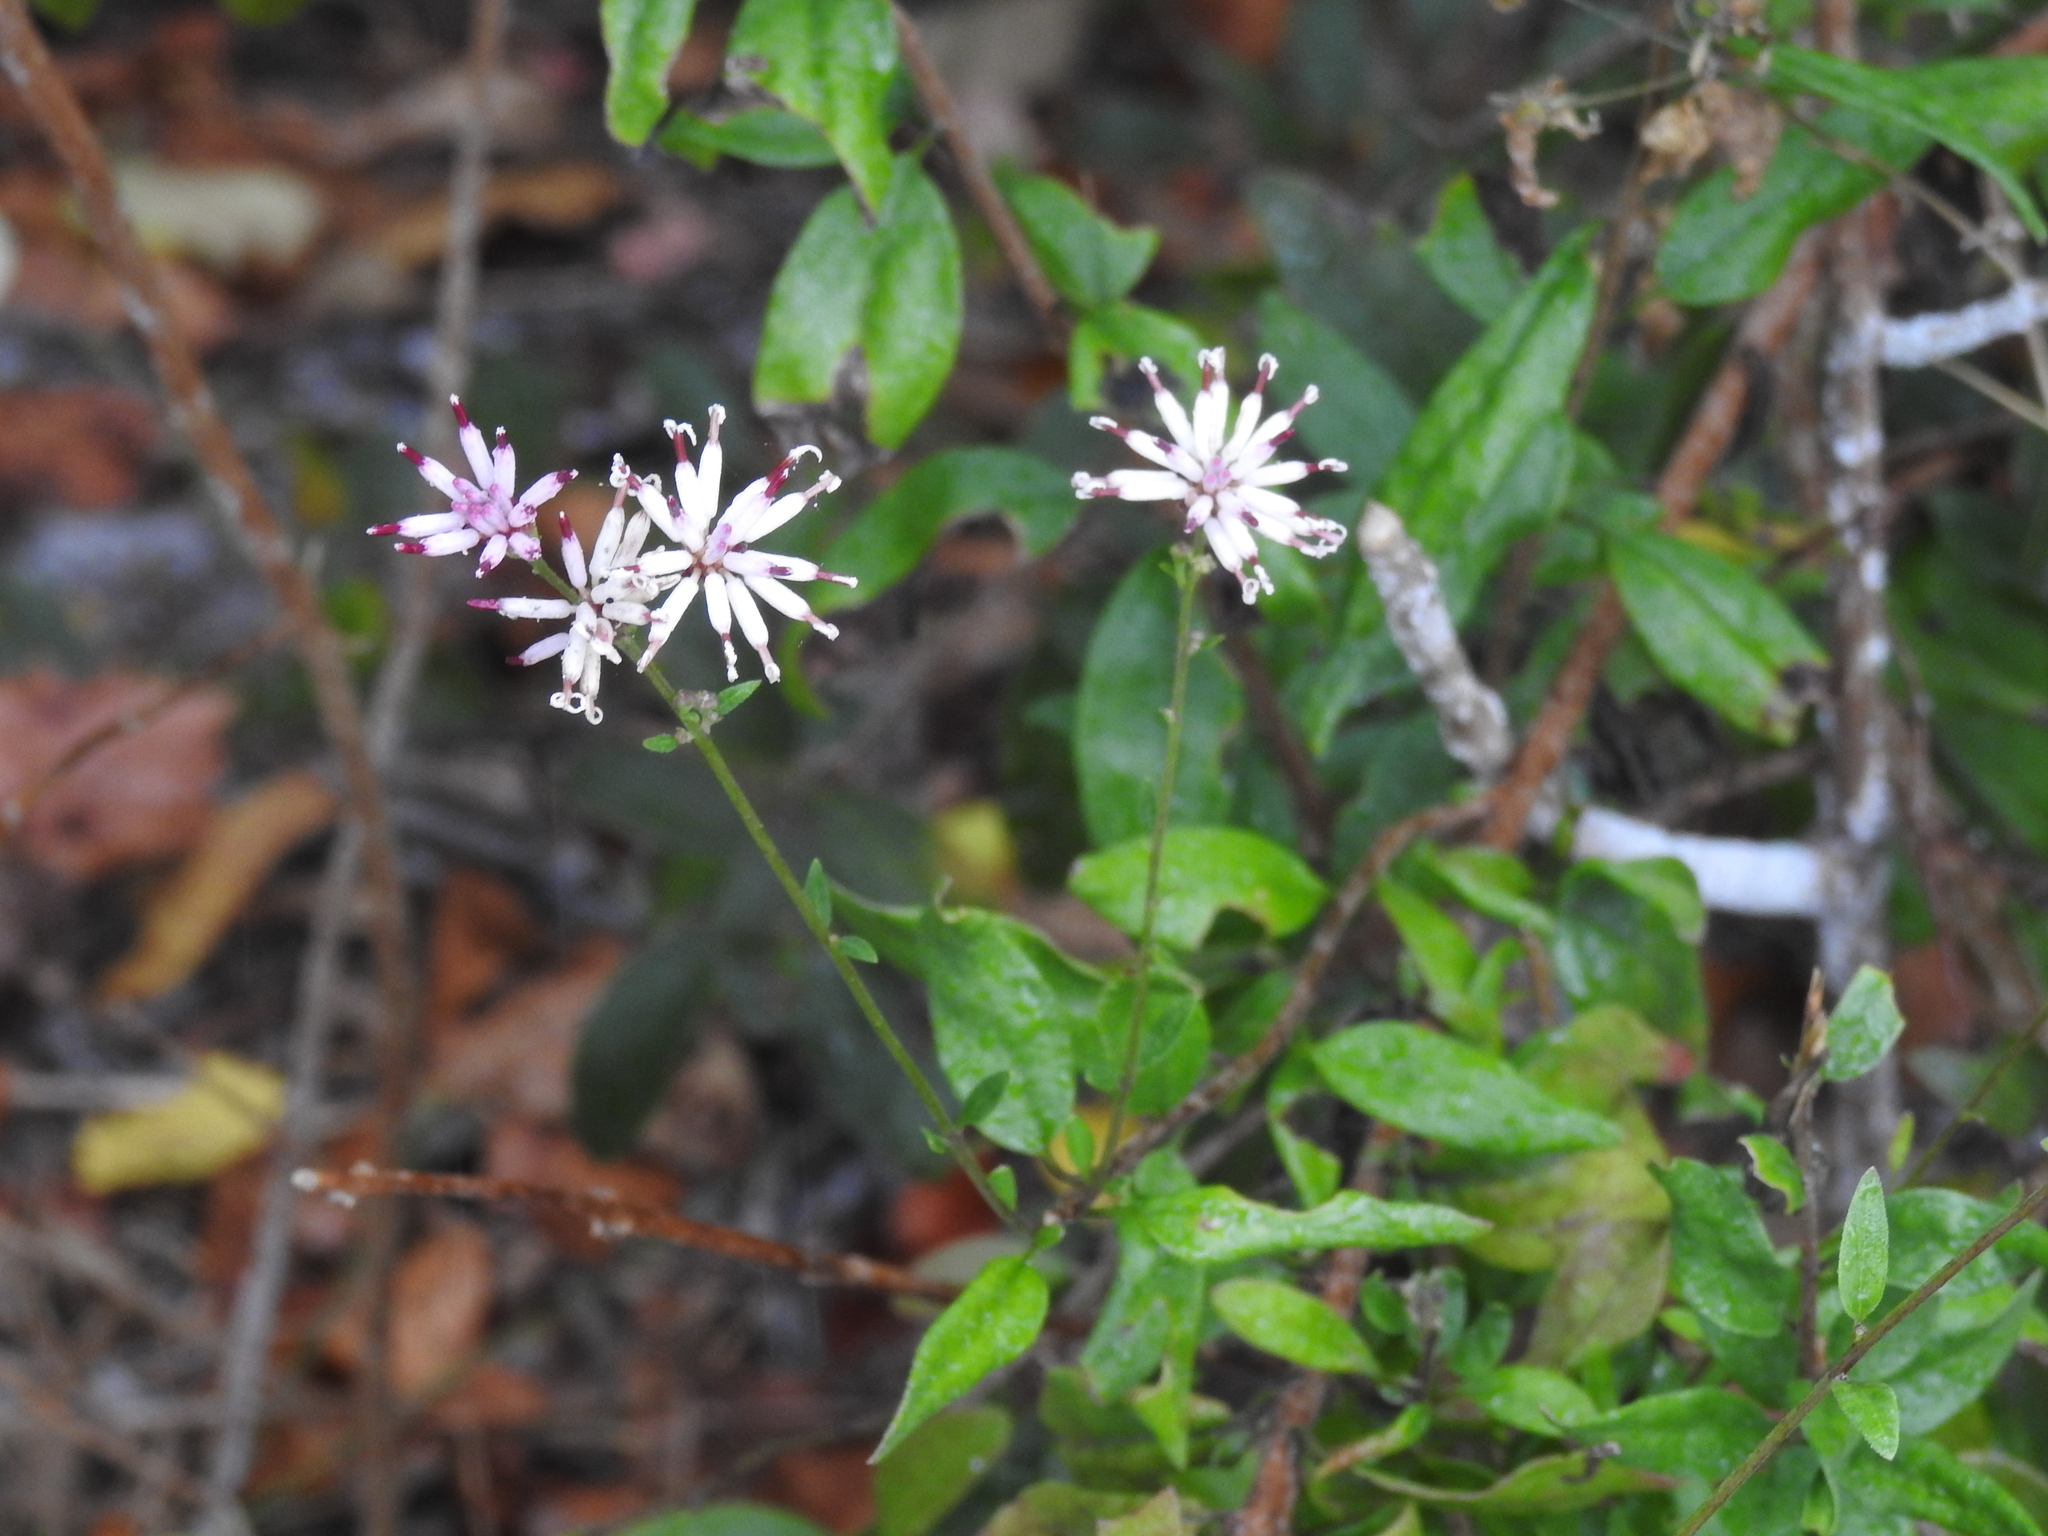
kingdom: Plantae
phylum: Tracheophyta
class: Magnoliopsida
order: Asterales
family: Asteraceae
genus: Palafoxia
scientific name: Palafoxia feayi
